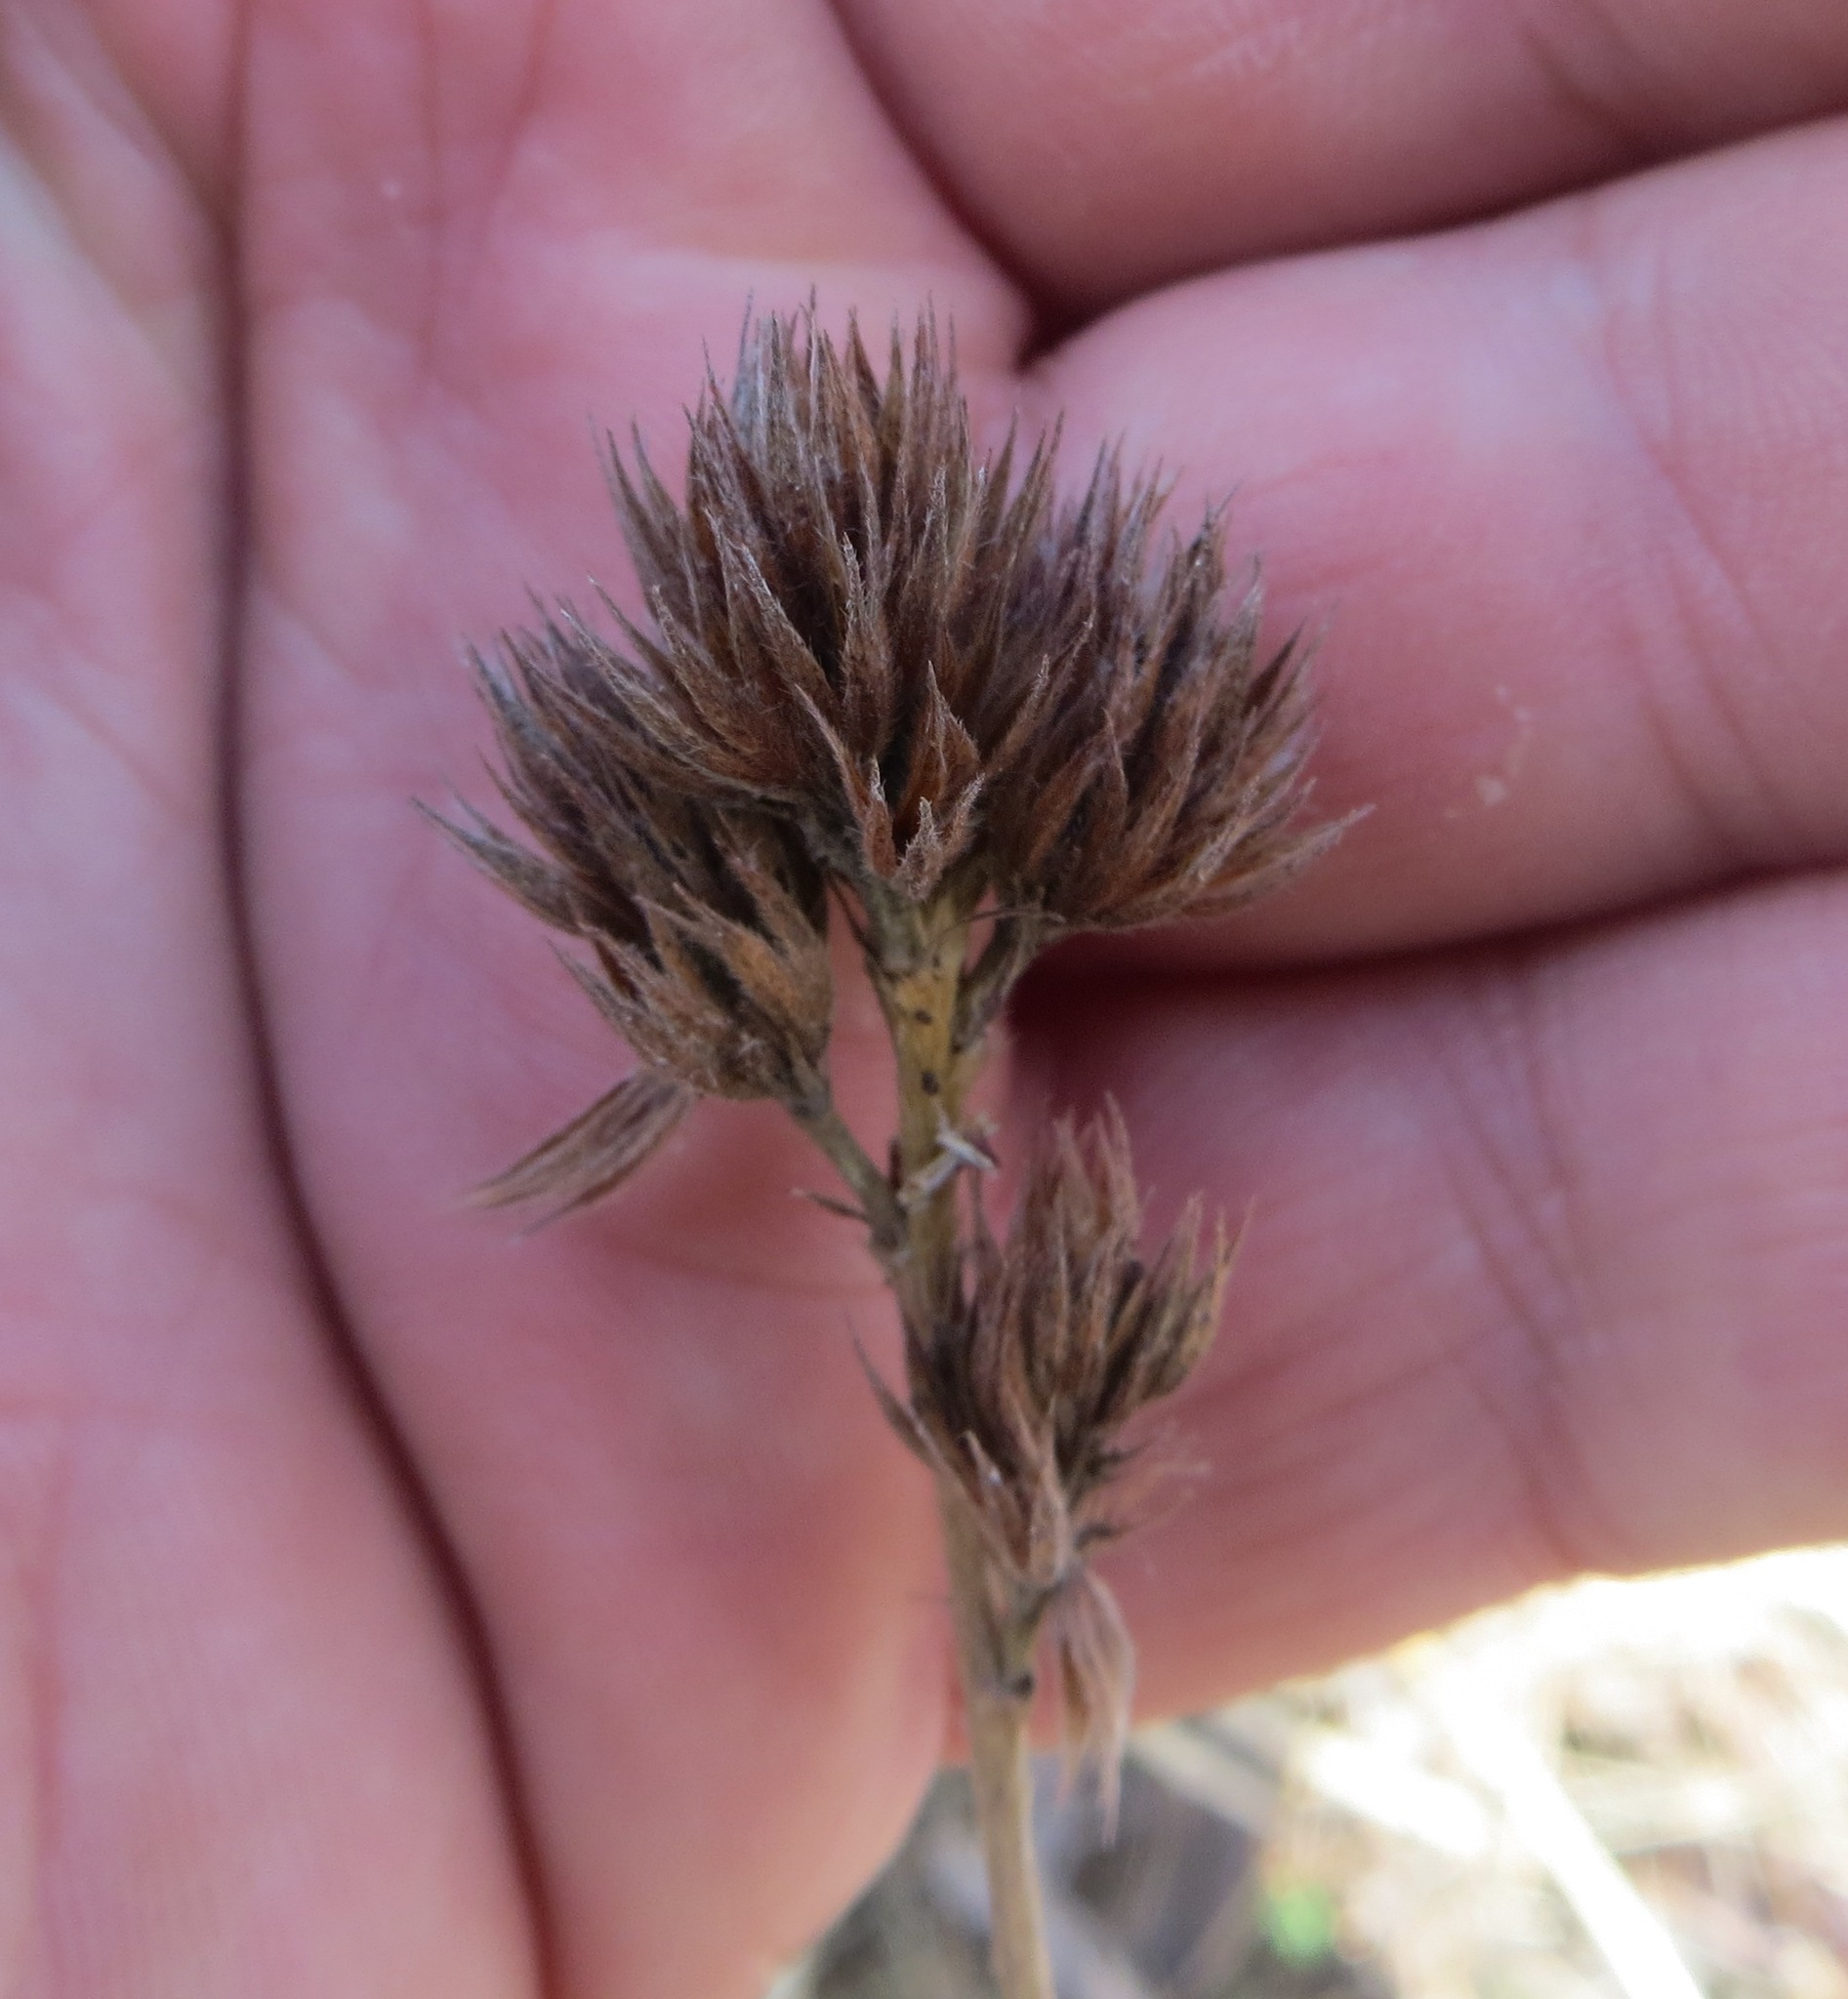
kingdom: Plantae
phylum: Tracheophyta
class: Magnoliopsida
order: Fabales
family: Fabaceae
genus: Lespedeza
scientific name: Lespedeza capitata
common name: Dusty clover
